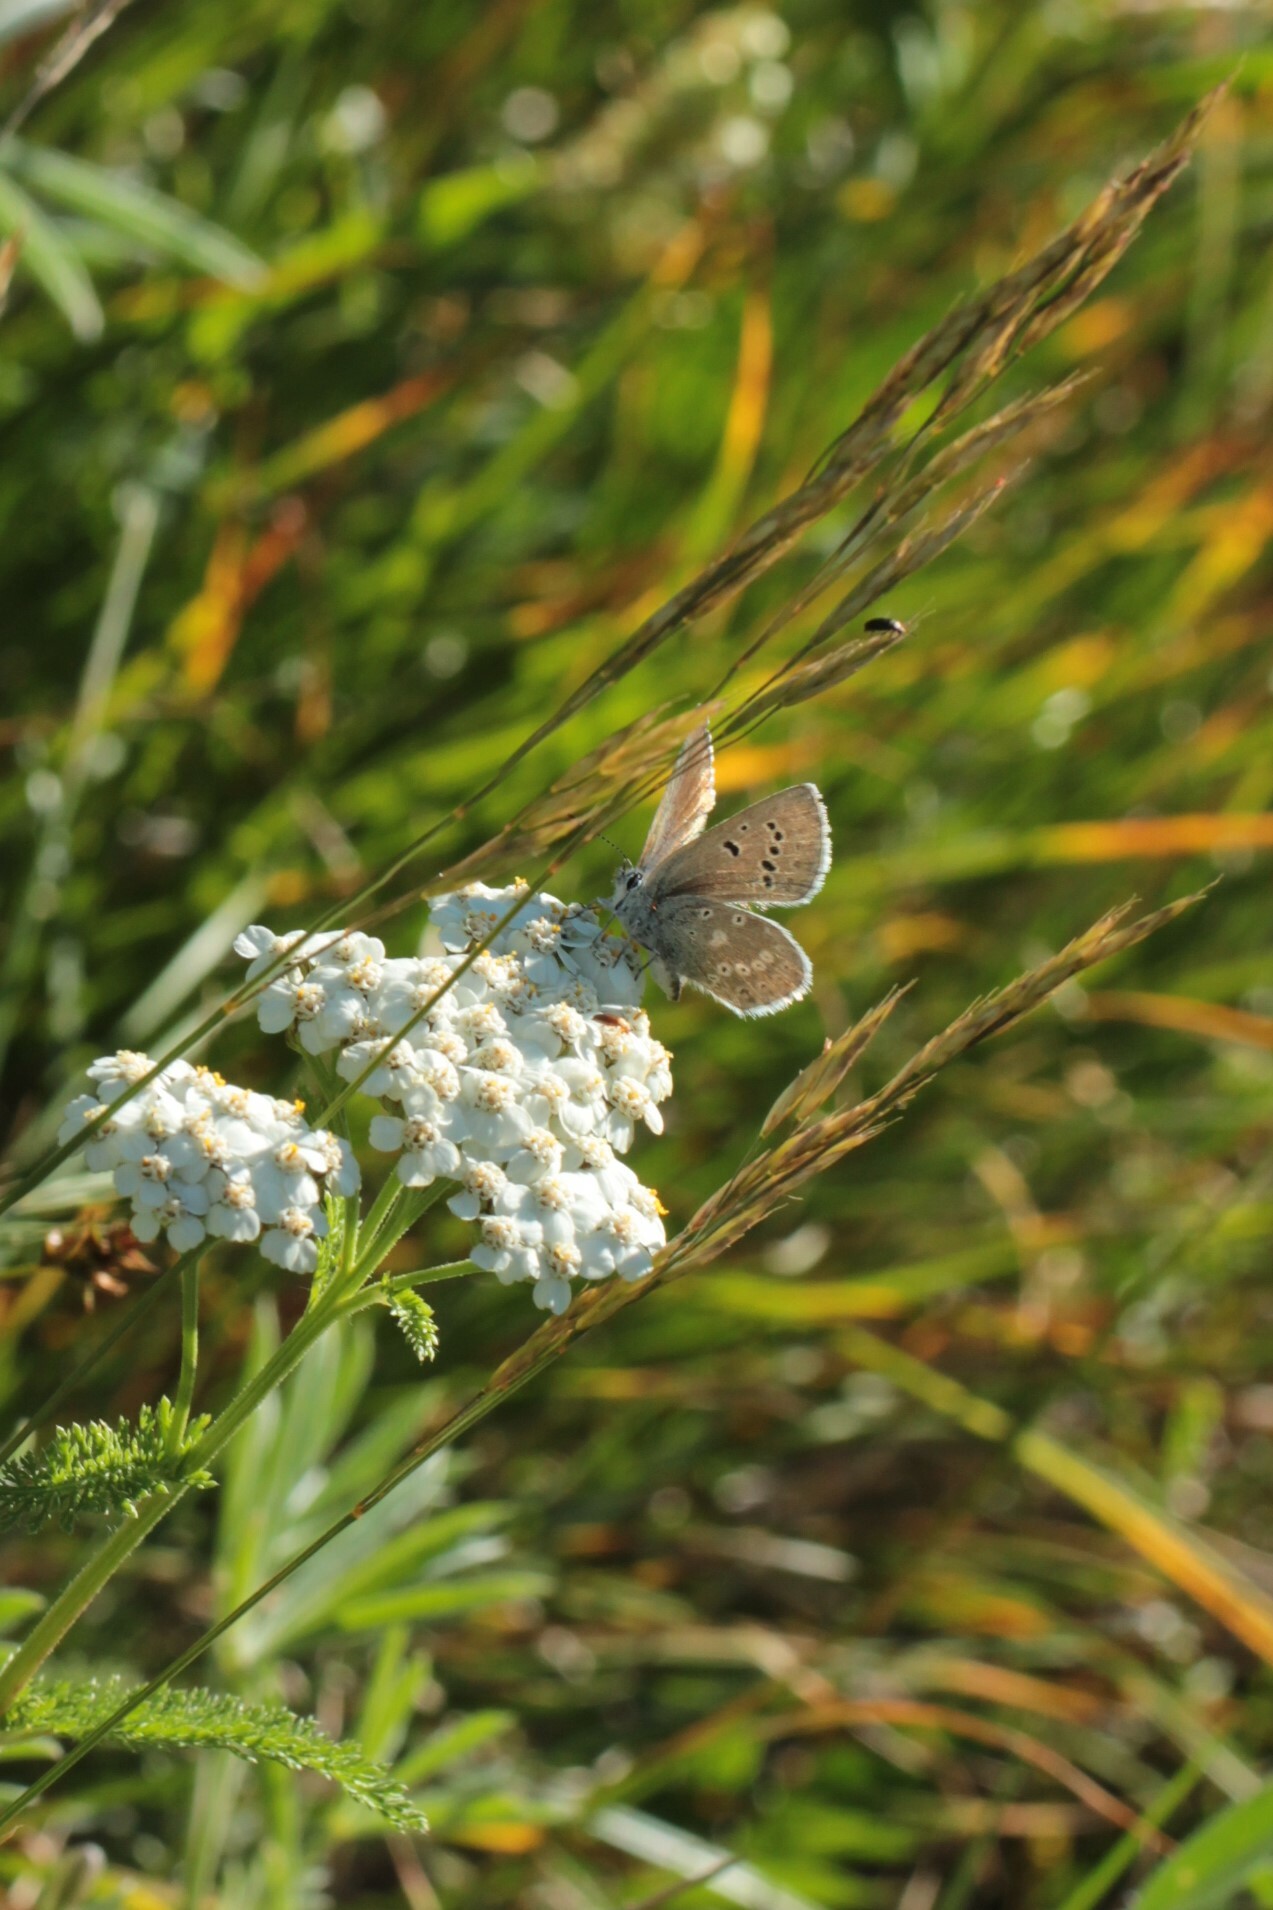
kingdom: Animalia
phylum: Arthropoda
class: Insecta
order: Lepidoptera
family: Lycaenidae
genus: Icaricia
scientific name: Icaricia icarioides
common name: Boisduval's blue
